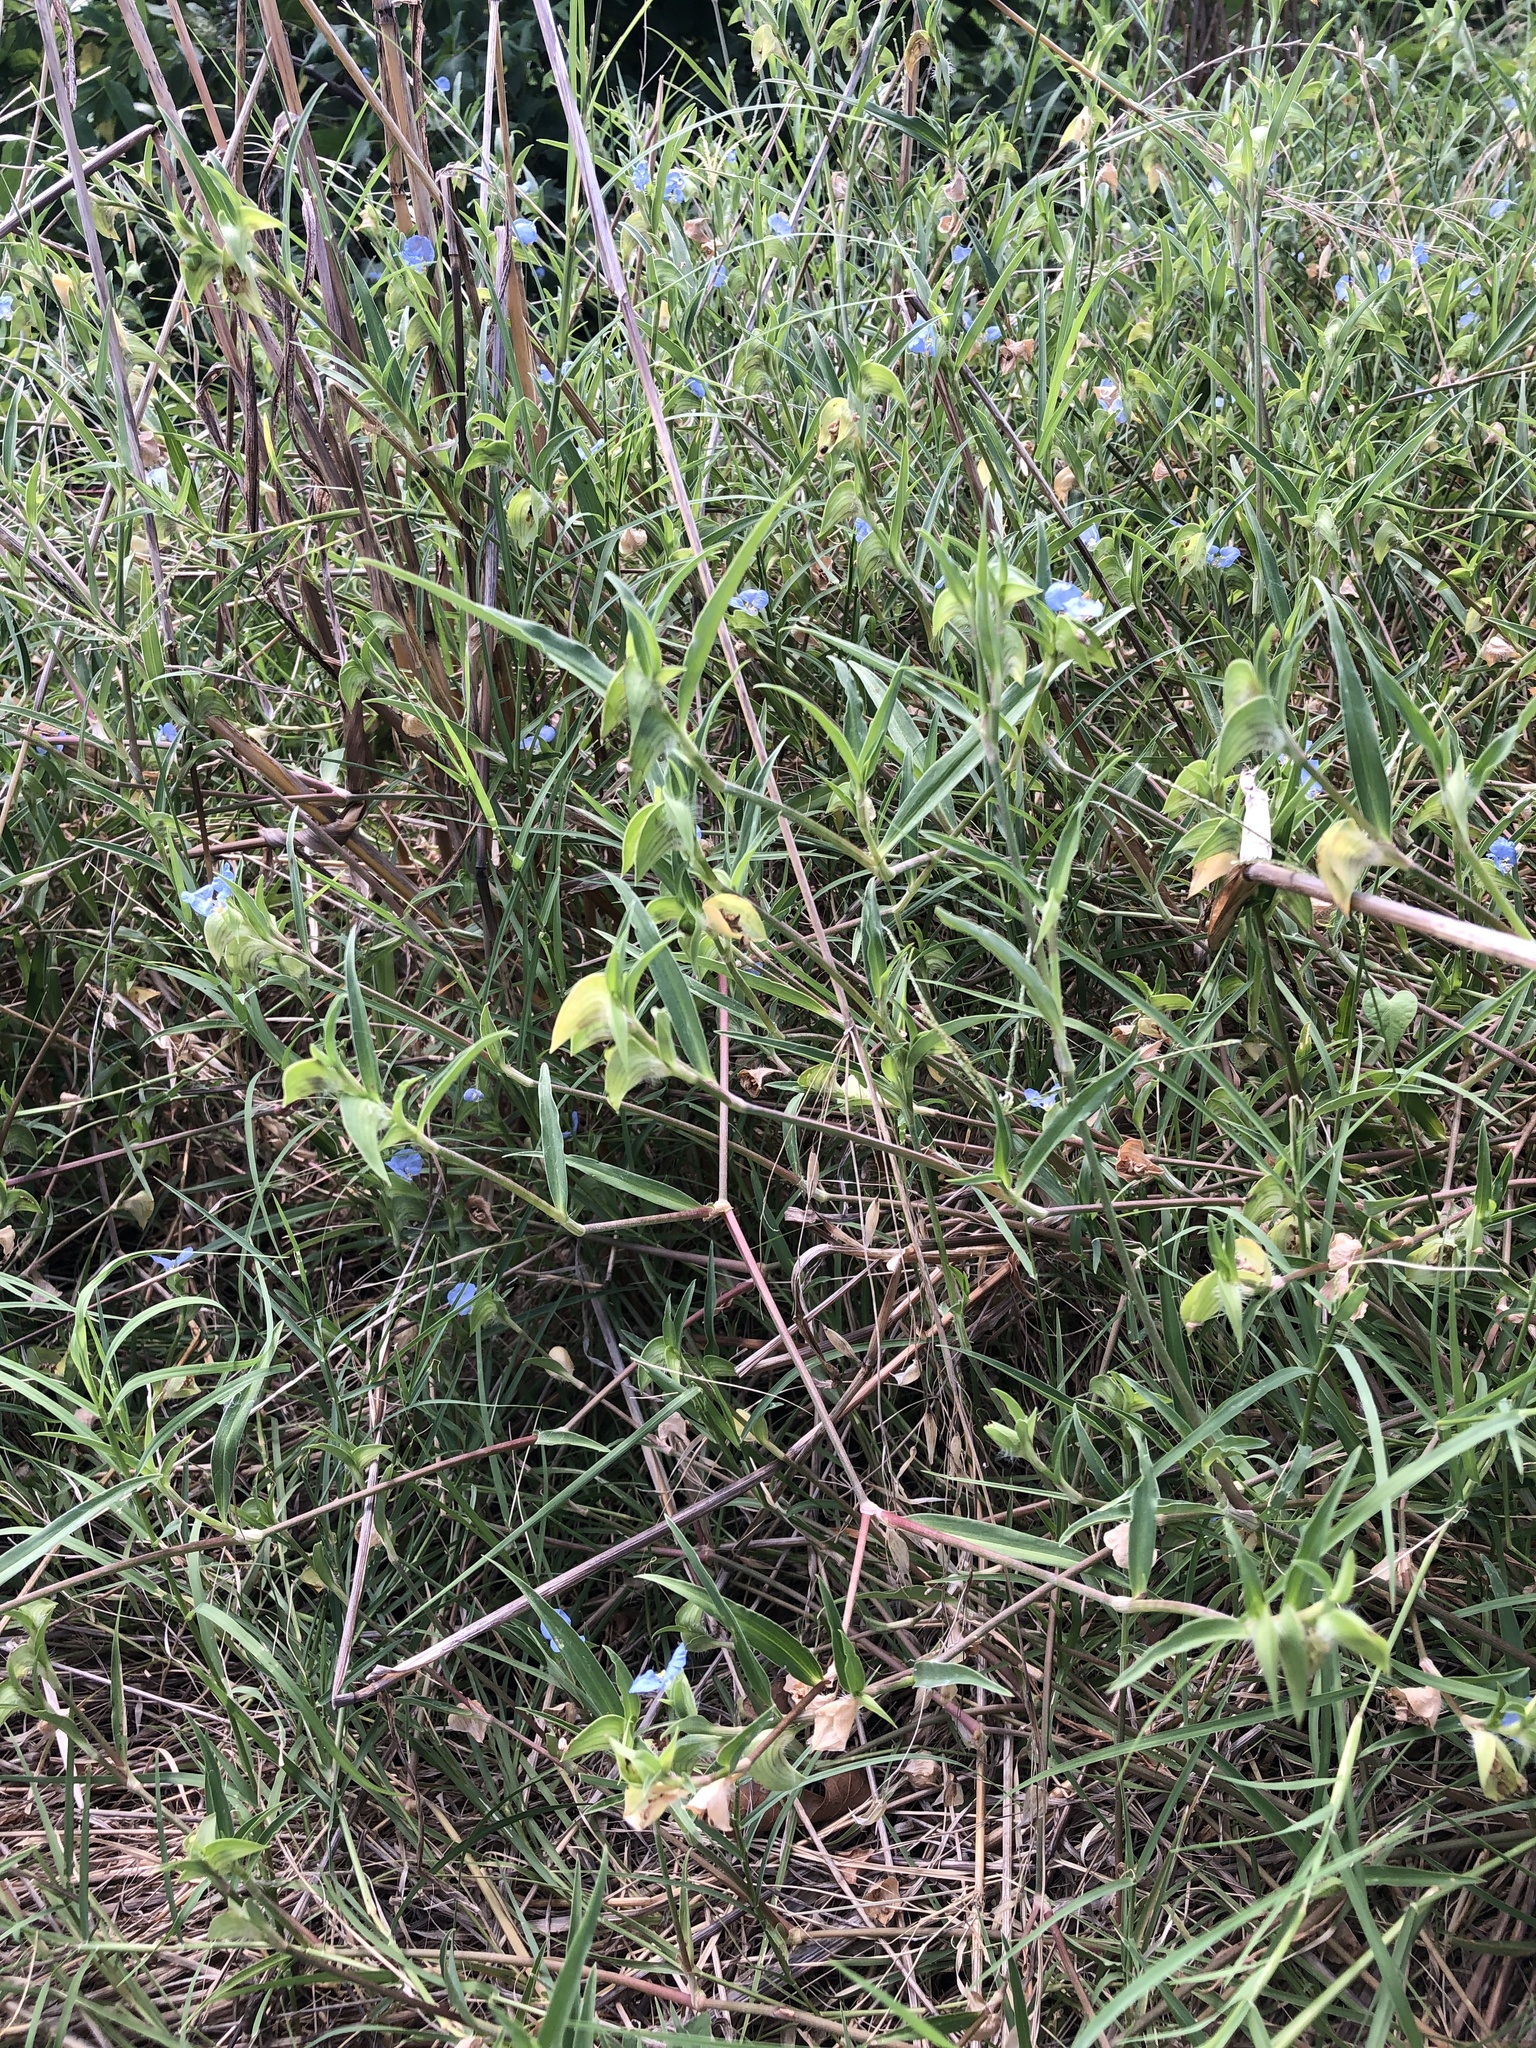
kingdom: Plantae
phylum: Tracheophyta
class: Liliopsida
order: Commelinales
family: Commelinaceae
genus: Commelina
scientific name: Commelina erecta
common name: Blousel blommetjie
